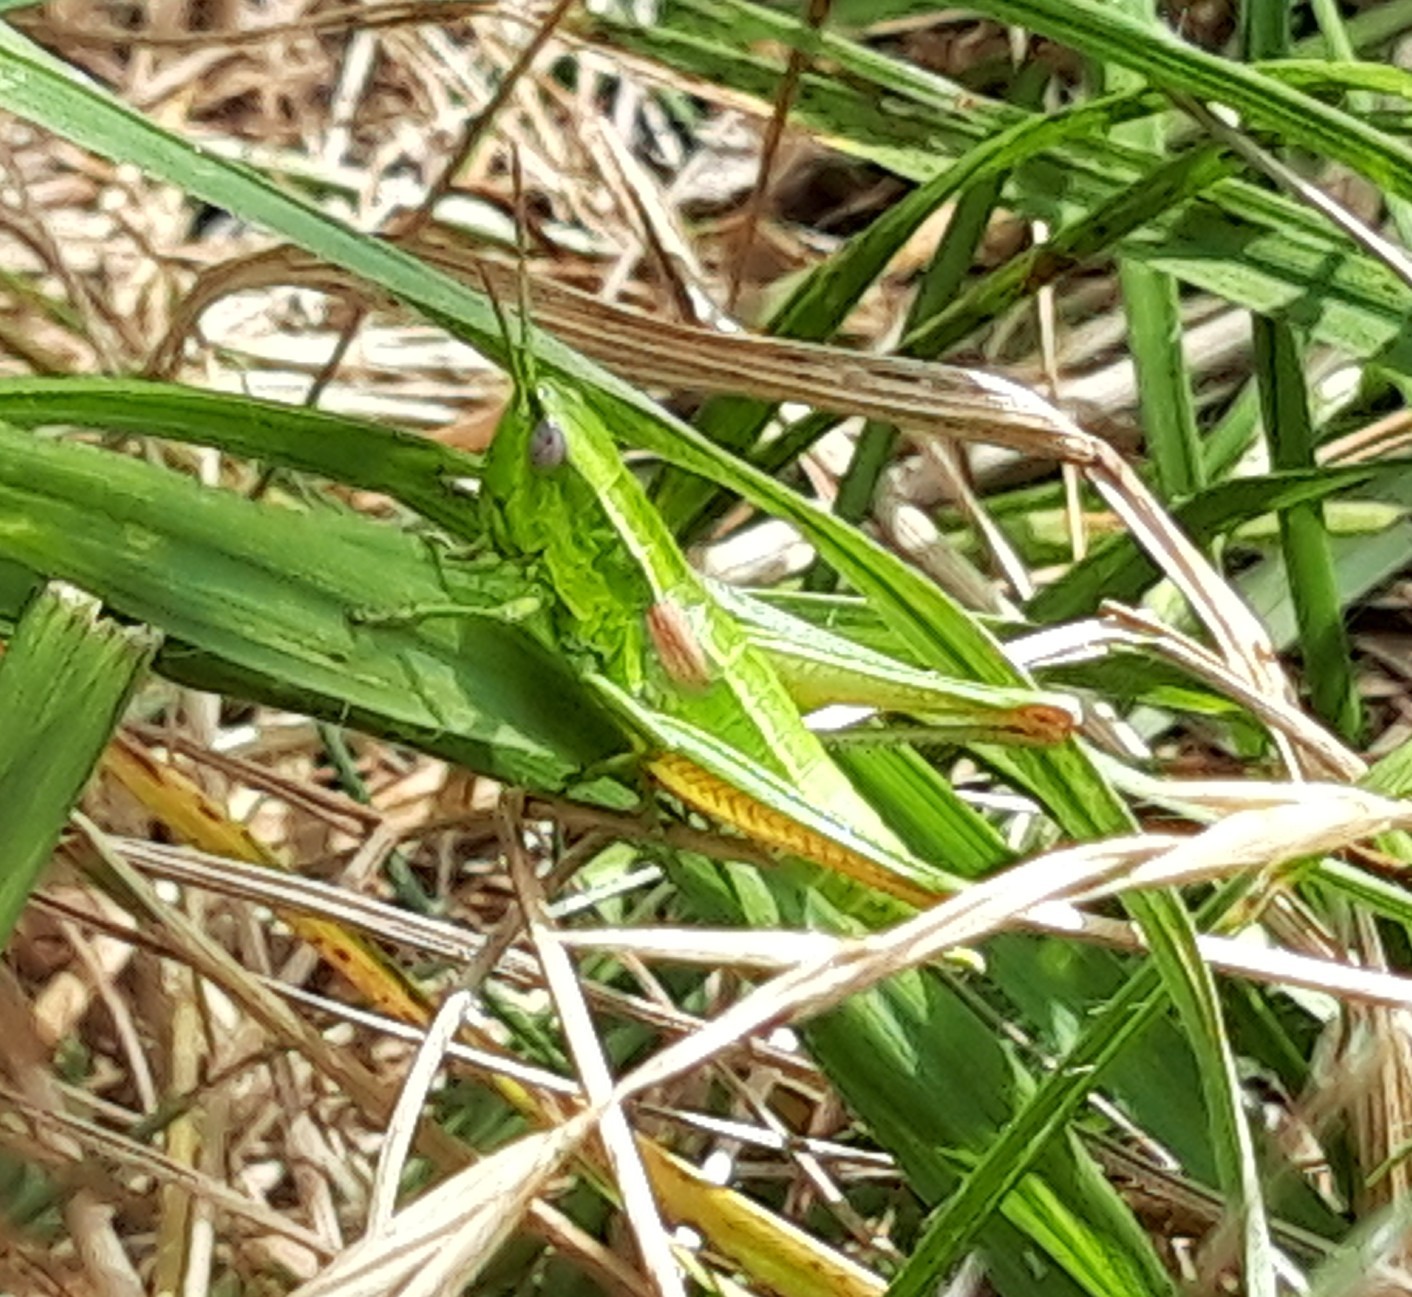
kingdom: Animalia
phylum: Arthropoda
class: Insecta
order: Orthoptera
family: Acrididae
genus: Euthystira
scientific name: Euthystira brachyptera
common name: Small gold grasshopper
